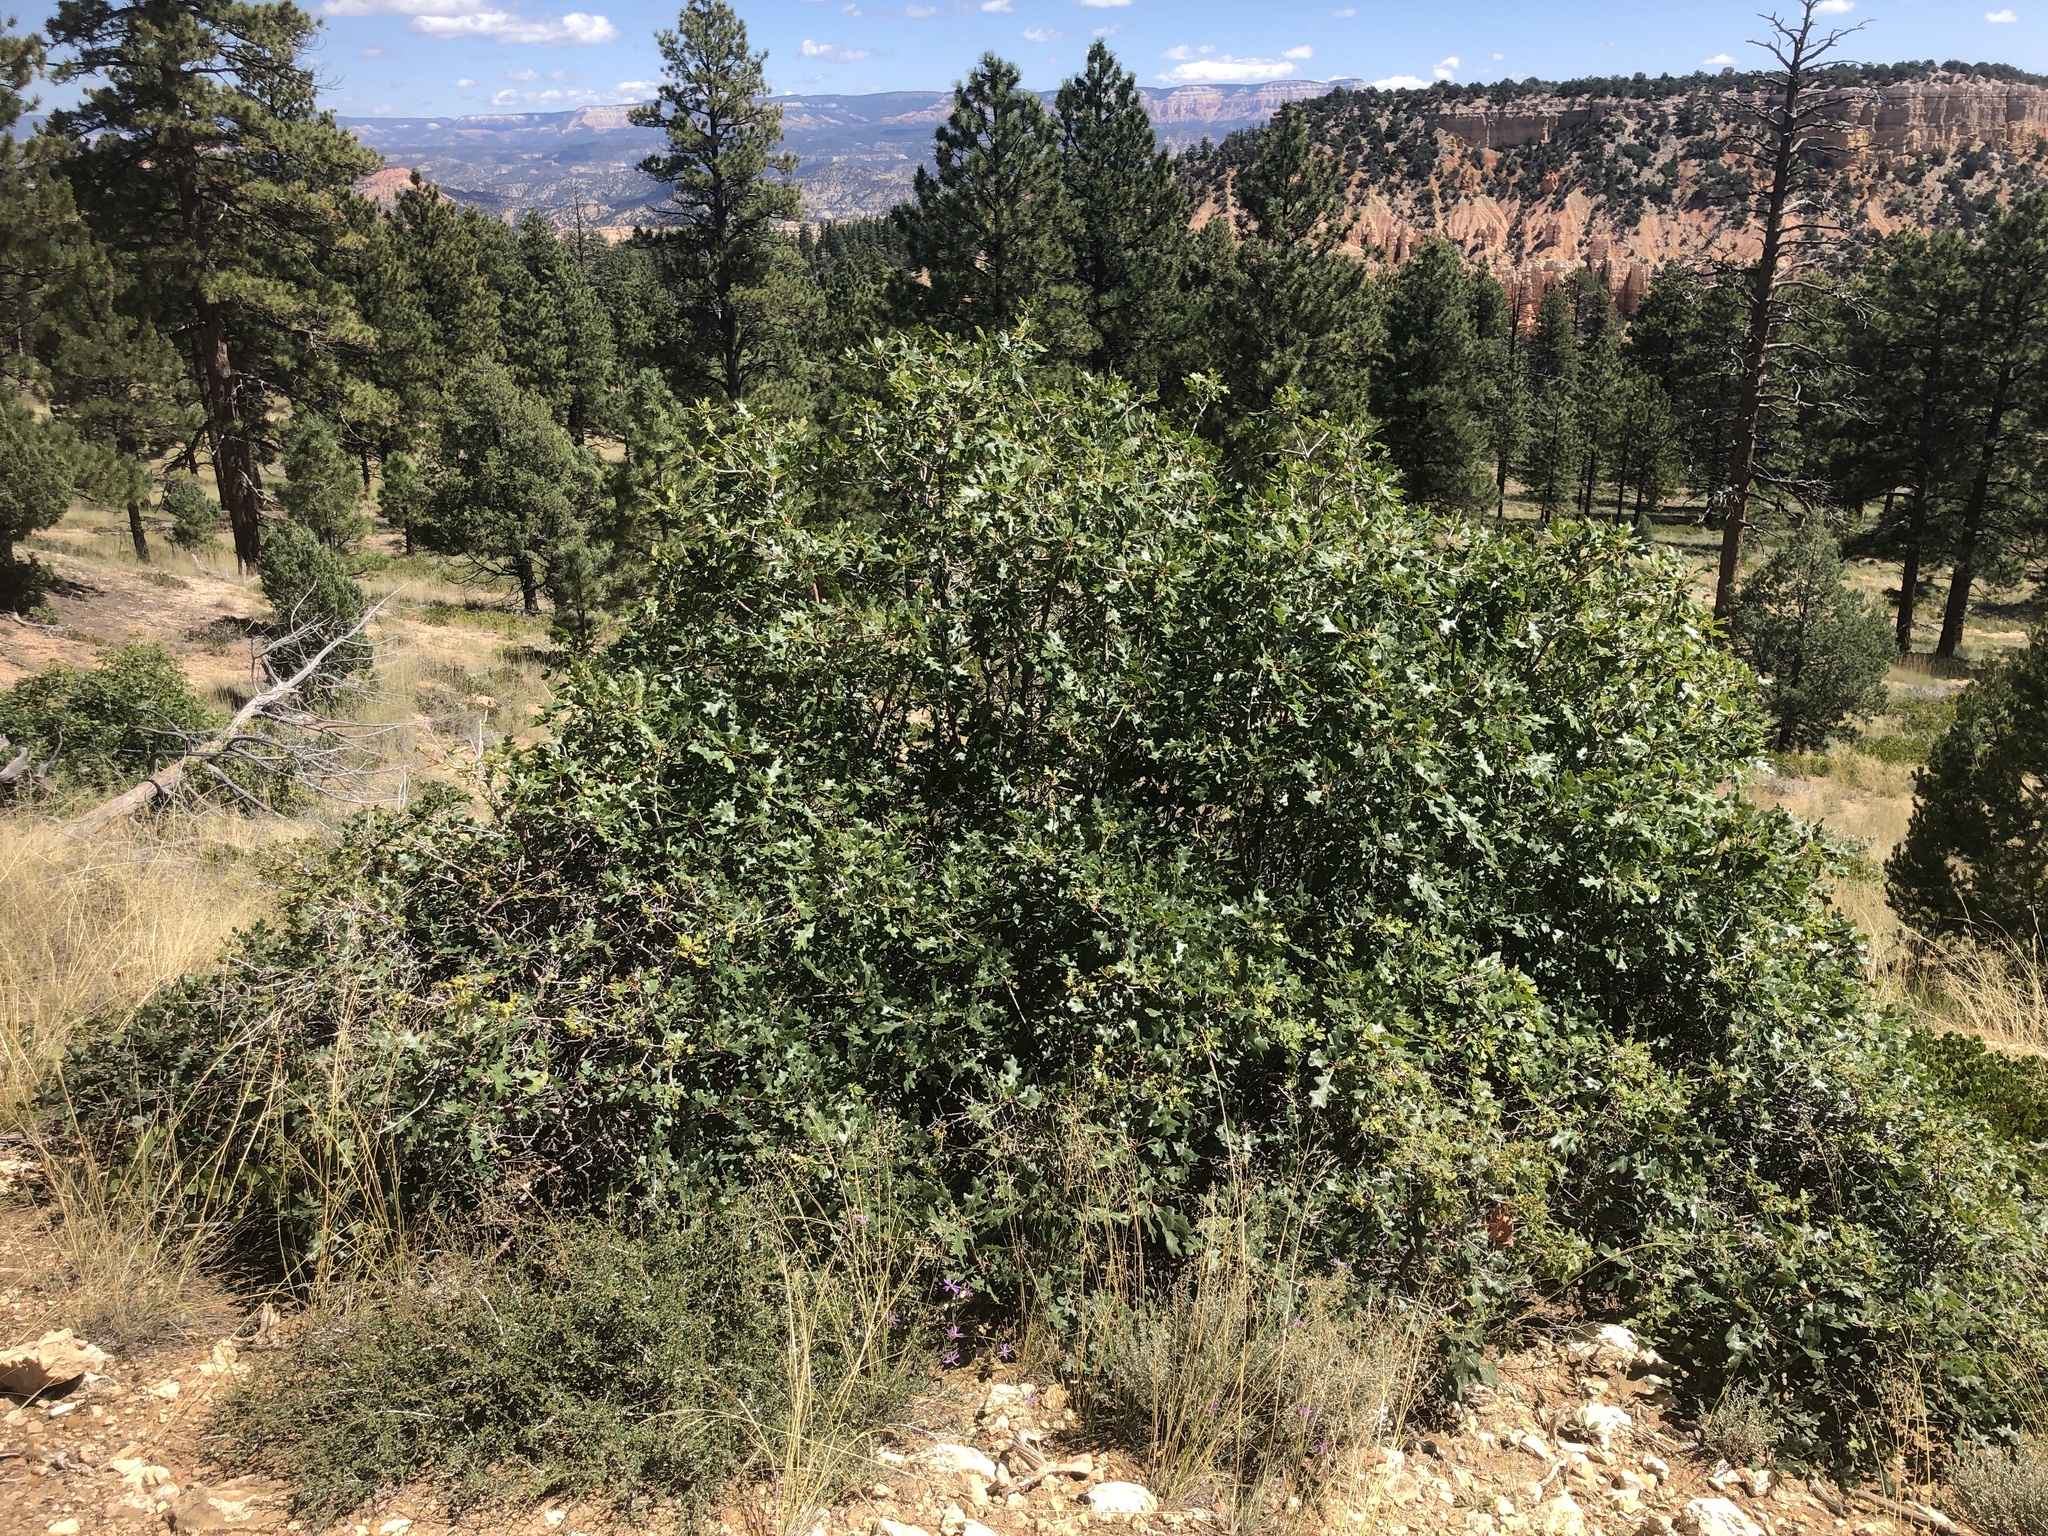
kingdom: Plantae
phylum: Tracheophyta
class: Magnoliopsida
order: Fagales
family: Fagaceae
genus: Quercus
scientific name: Quercus gambelii
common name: Gambel oak
